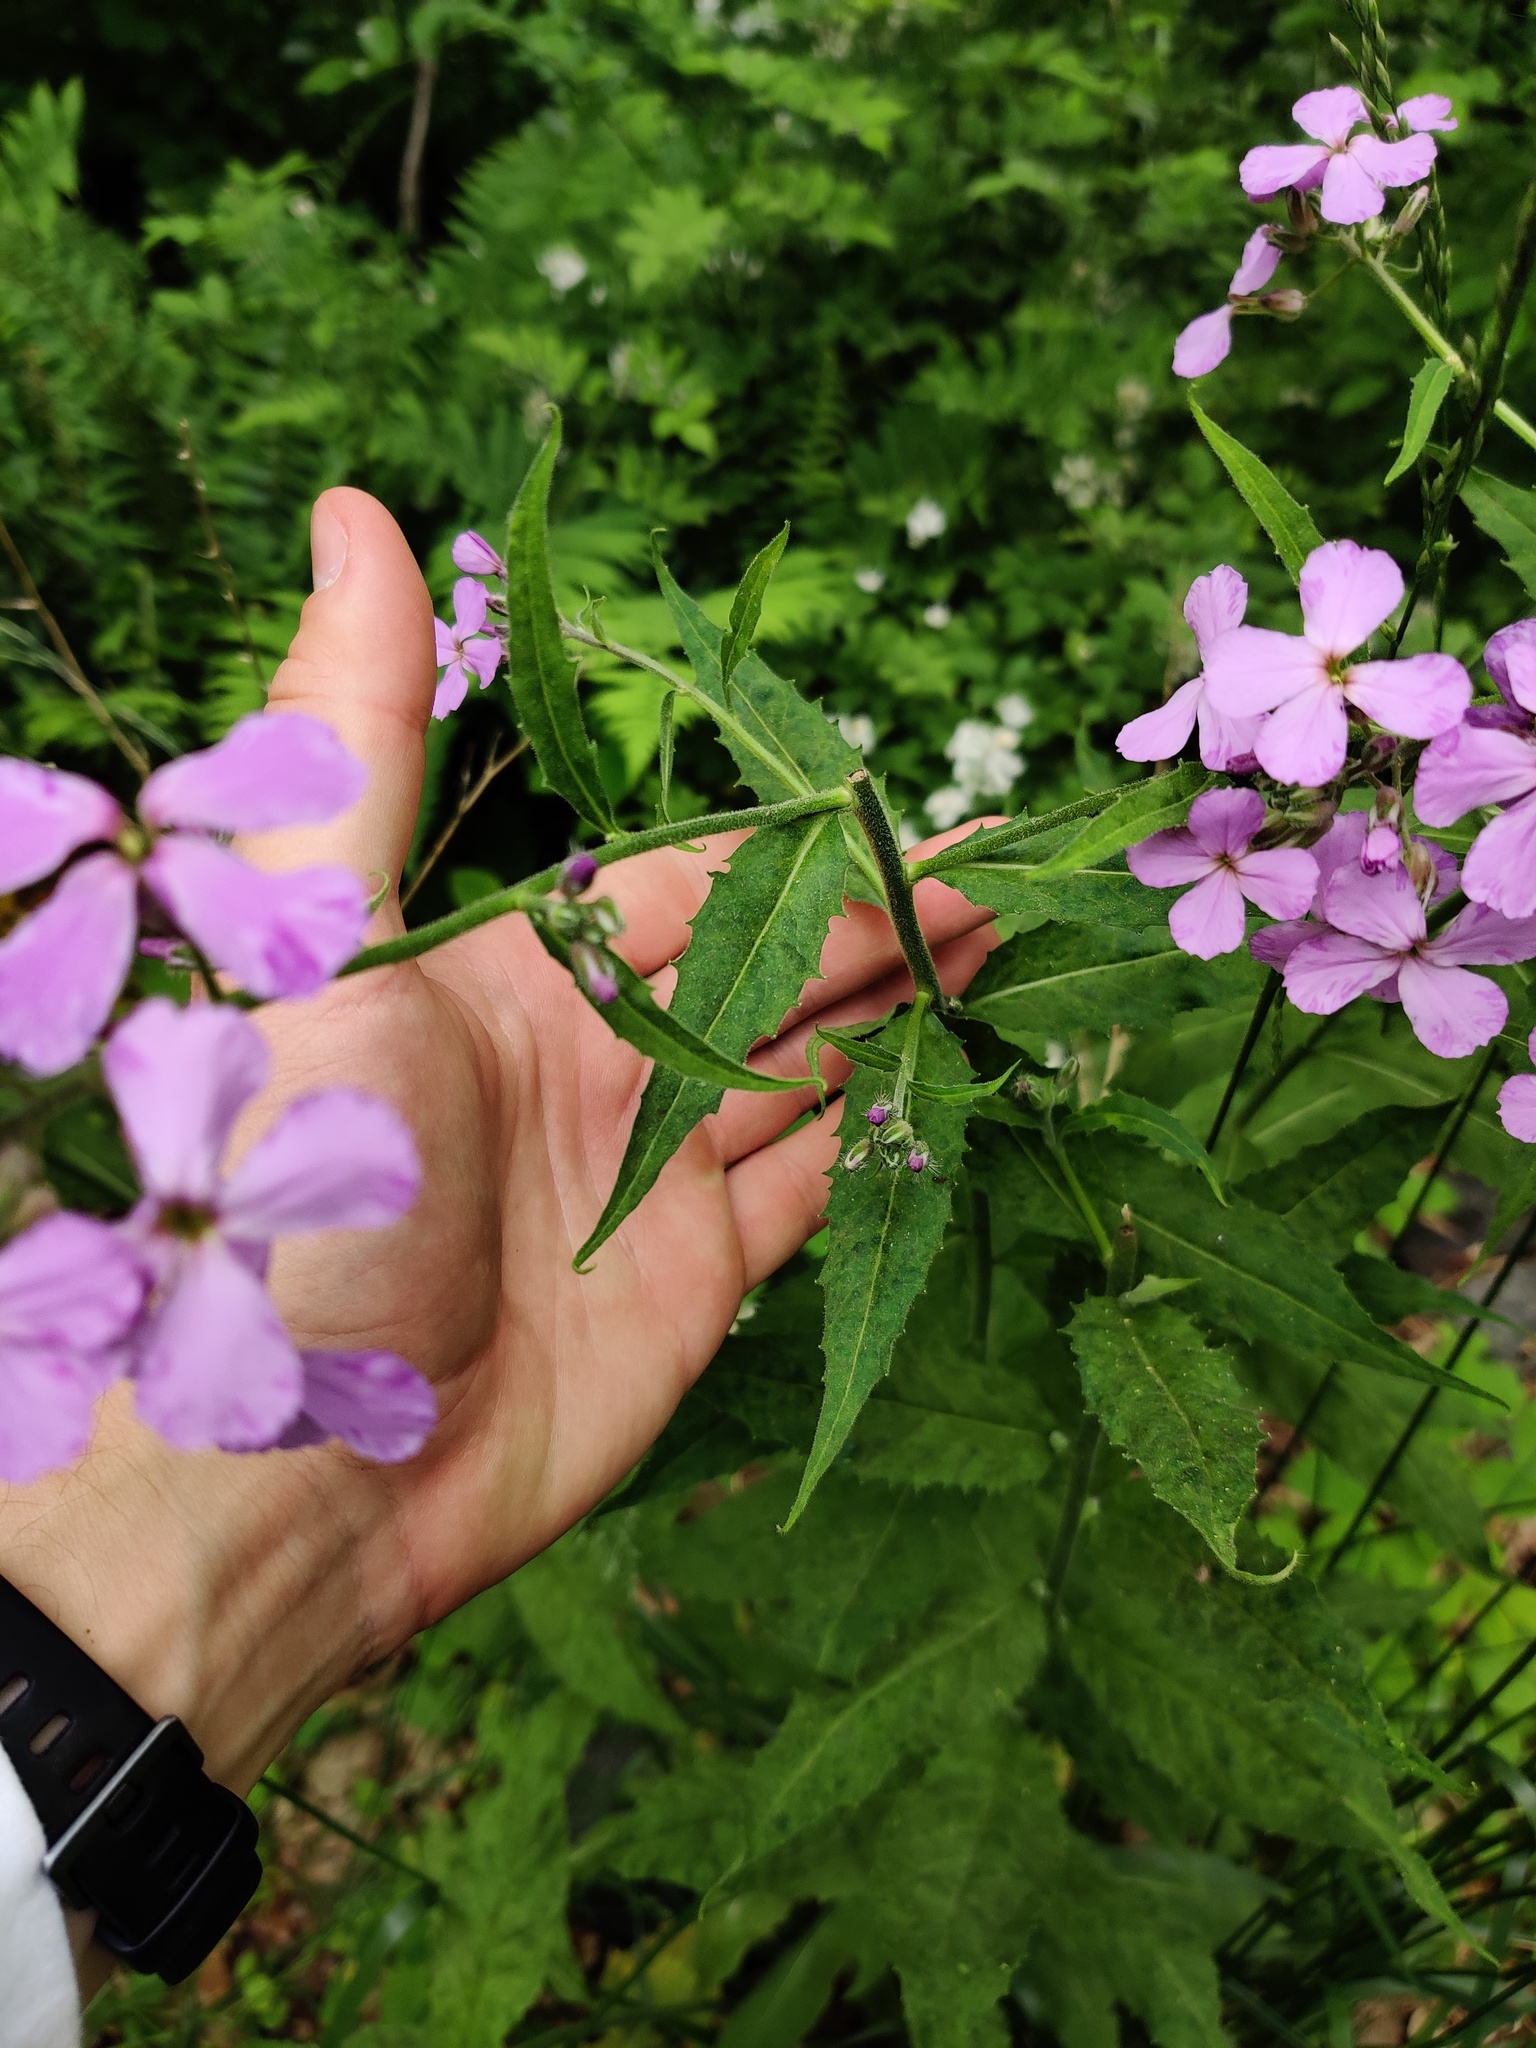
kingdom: Plantae
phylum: Tracheophyta
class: Magnoliopsida
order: Brassicales
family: Brassicaceae
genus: Hesperis
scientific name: Hesperis matronalis
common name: Dame's-violet
